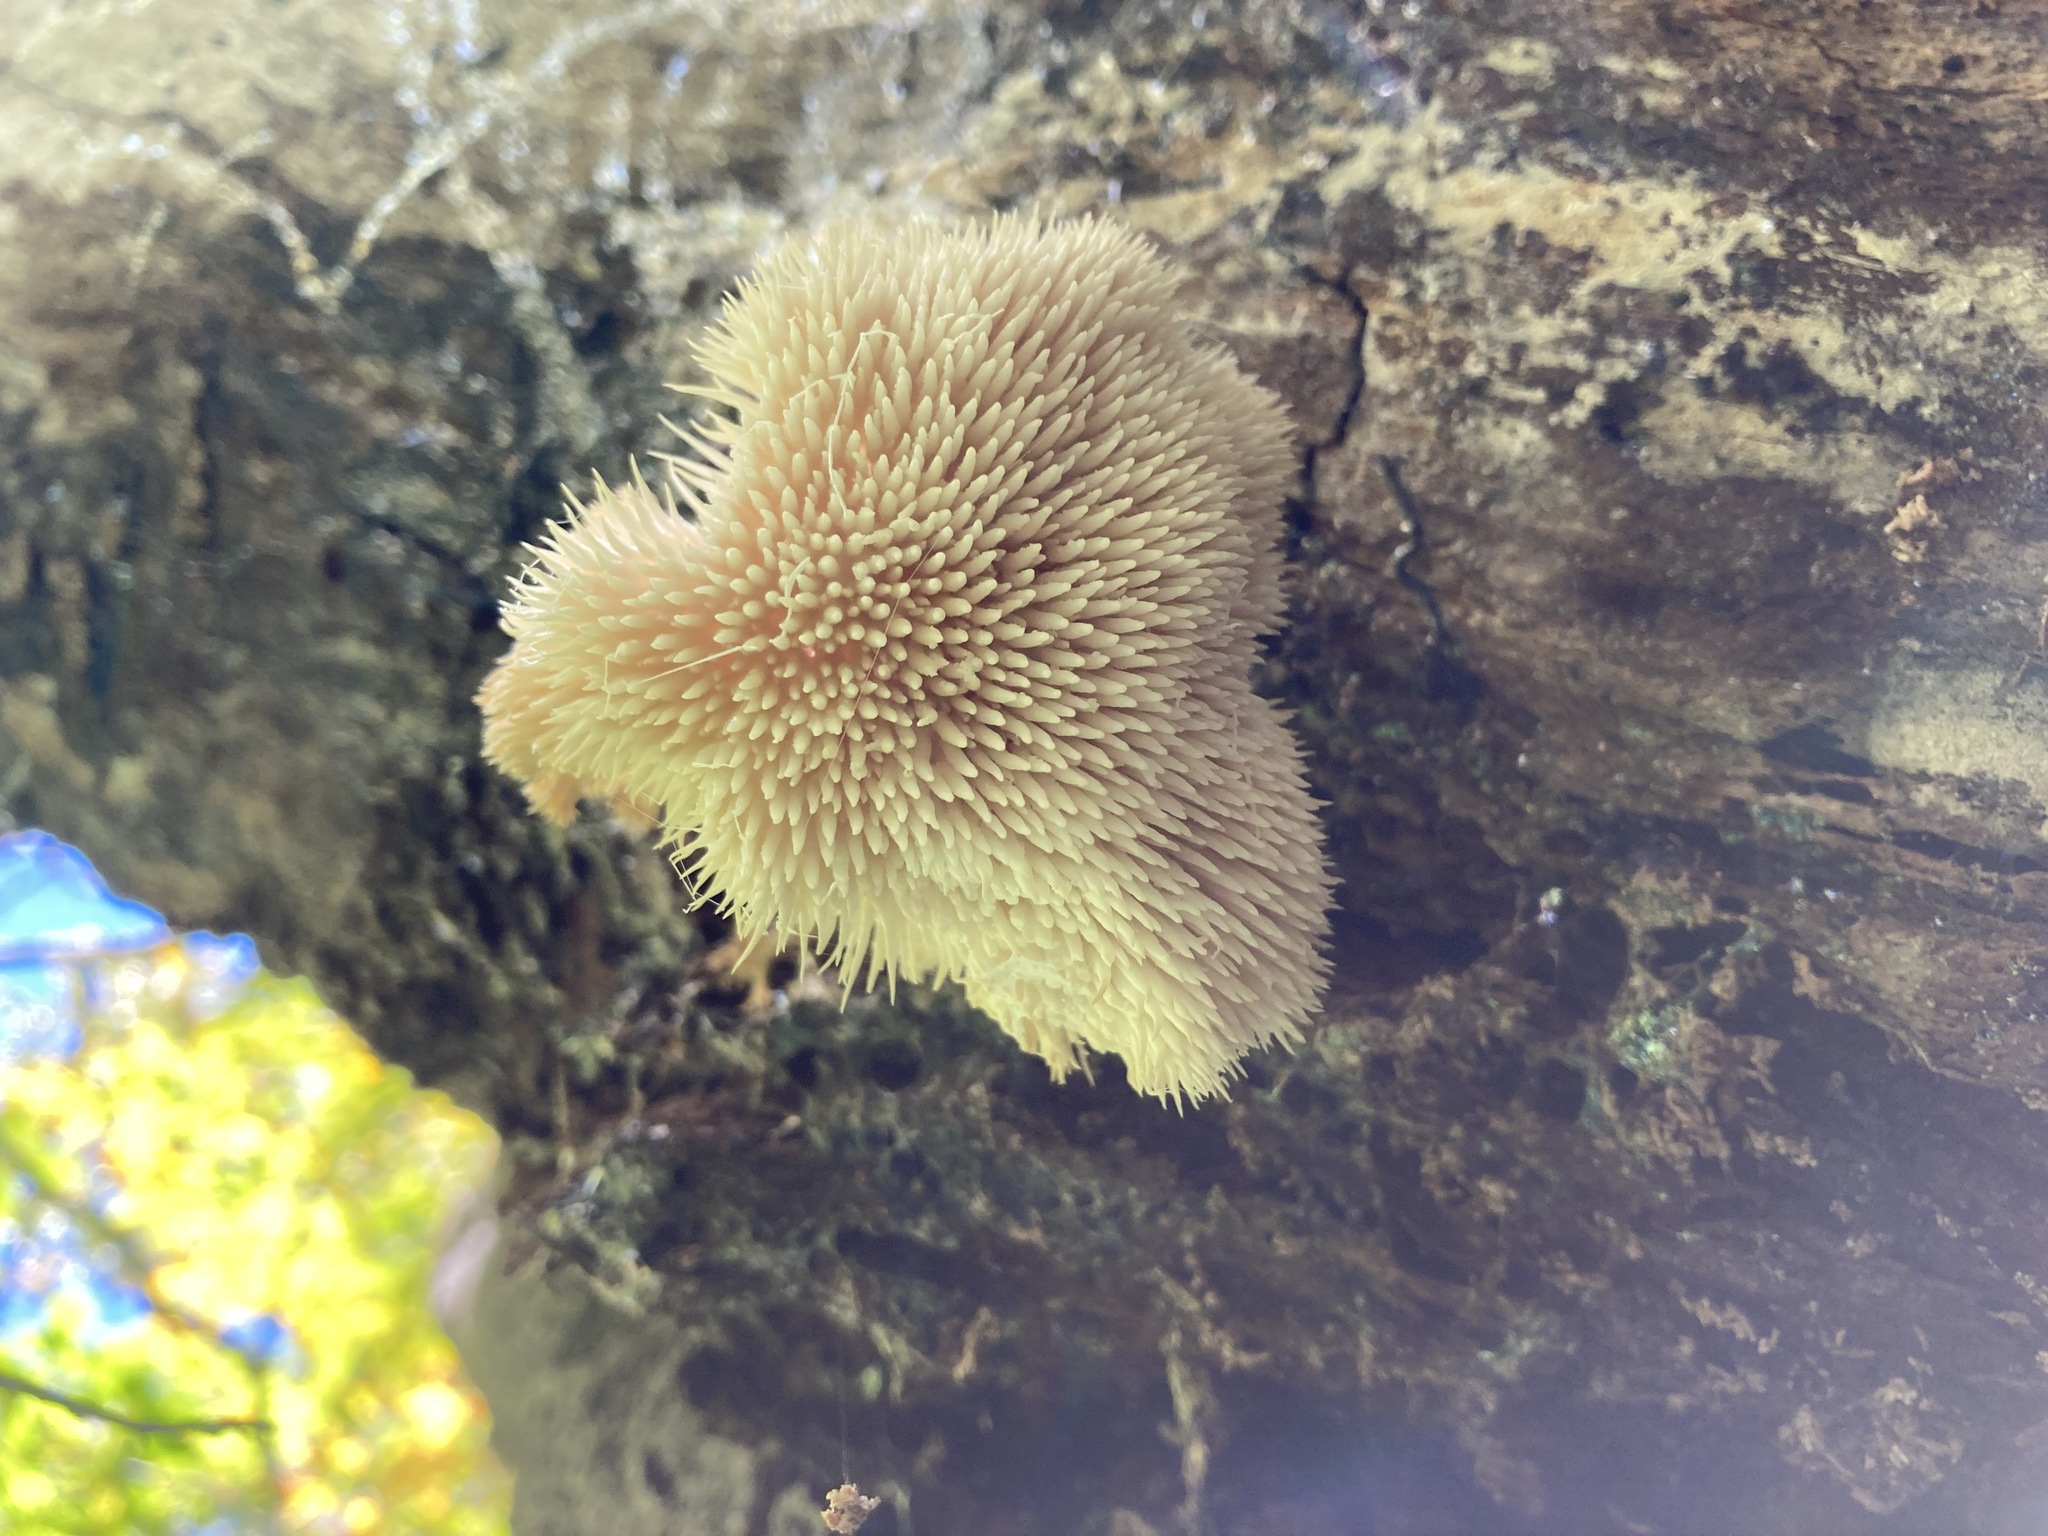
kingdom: Fungi
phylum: Basidiomycota
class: Agaricomycetes
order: Russulales
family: Hericiaceae
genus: Hericium
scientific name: Hericium erinaceus
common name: Bearded tooth
